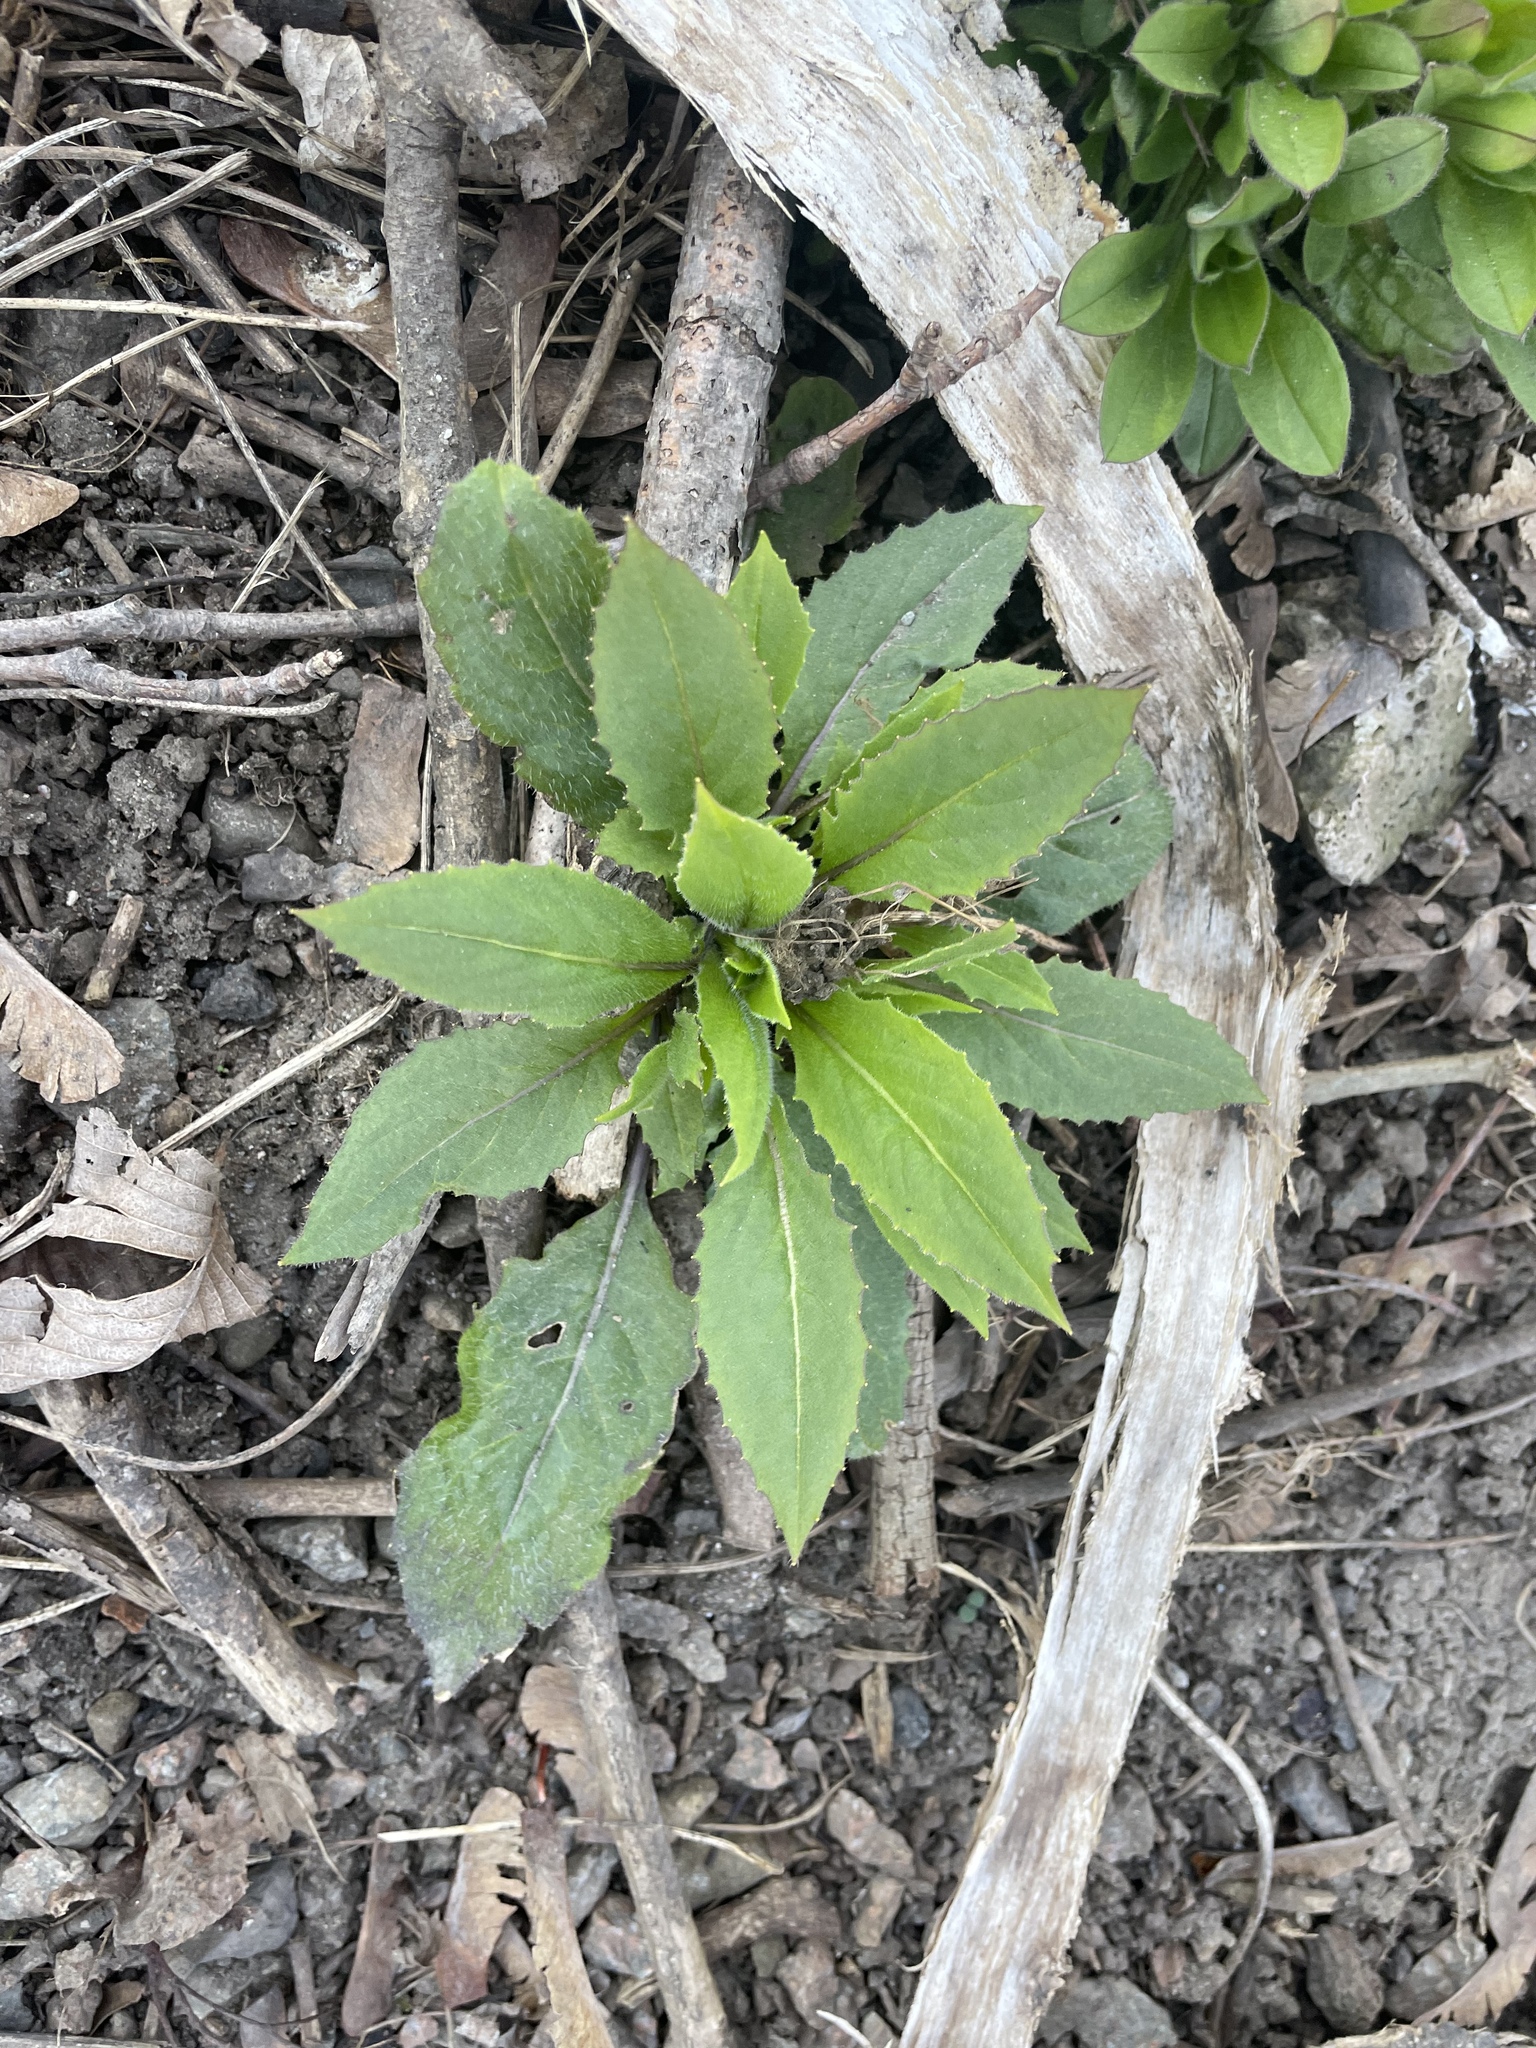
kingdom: Plantae
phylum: Tracheophyta
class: Magnoliopsida
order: Brassicales
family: Brassicaceae
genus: Hesperis
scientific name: Hesperis matronalis
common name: Dame's-violet
